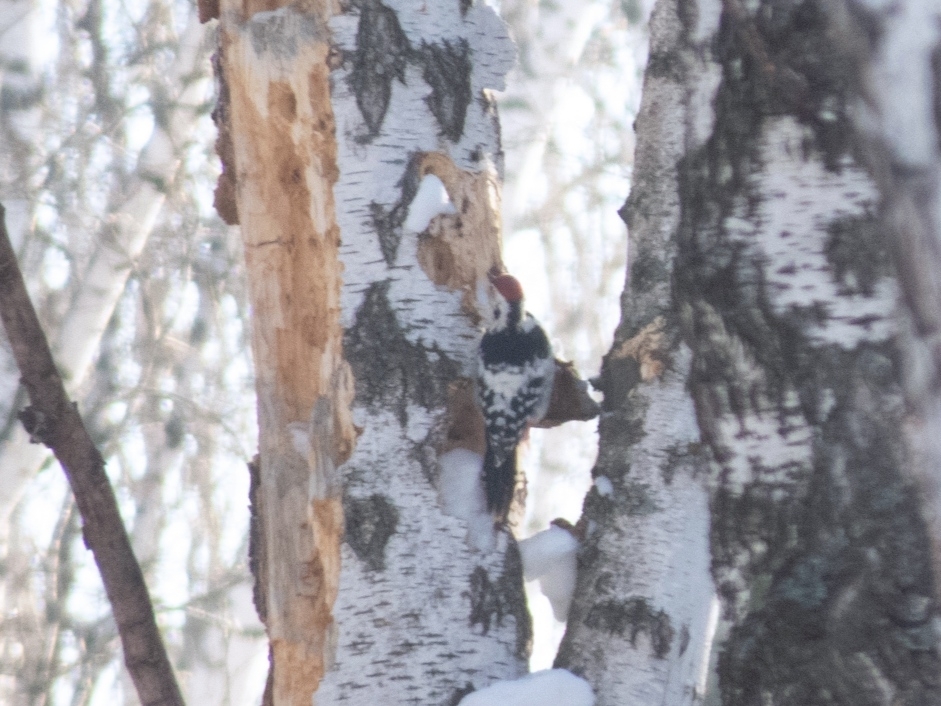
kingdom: Animalia
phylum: Chordata
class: Aves
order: Piciformes
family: Picidae
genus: Dendrocopos
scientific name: Dendrocopos leucotos
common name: White-backed woodpecker
